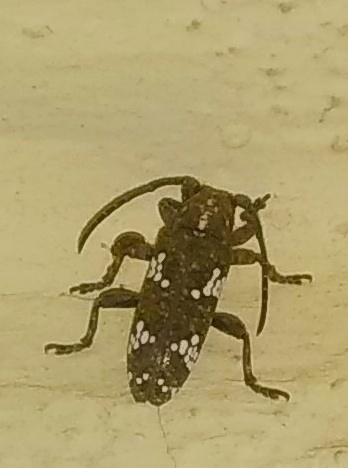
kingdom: Animalia
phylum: Arthropoda
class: Insecta
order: Coleoptera
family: Cerambycidae
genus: Apomecyna
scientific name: Apomecyna saltator
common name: Pointed gourd vine borer
